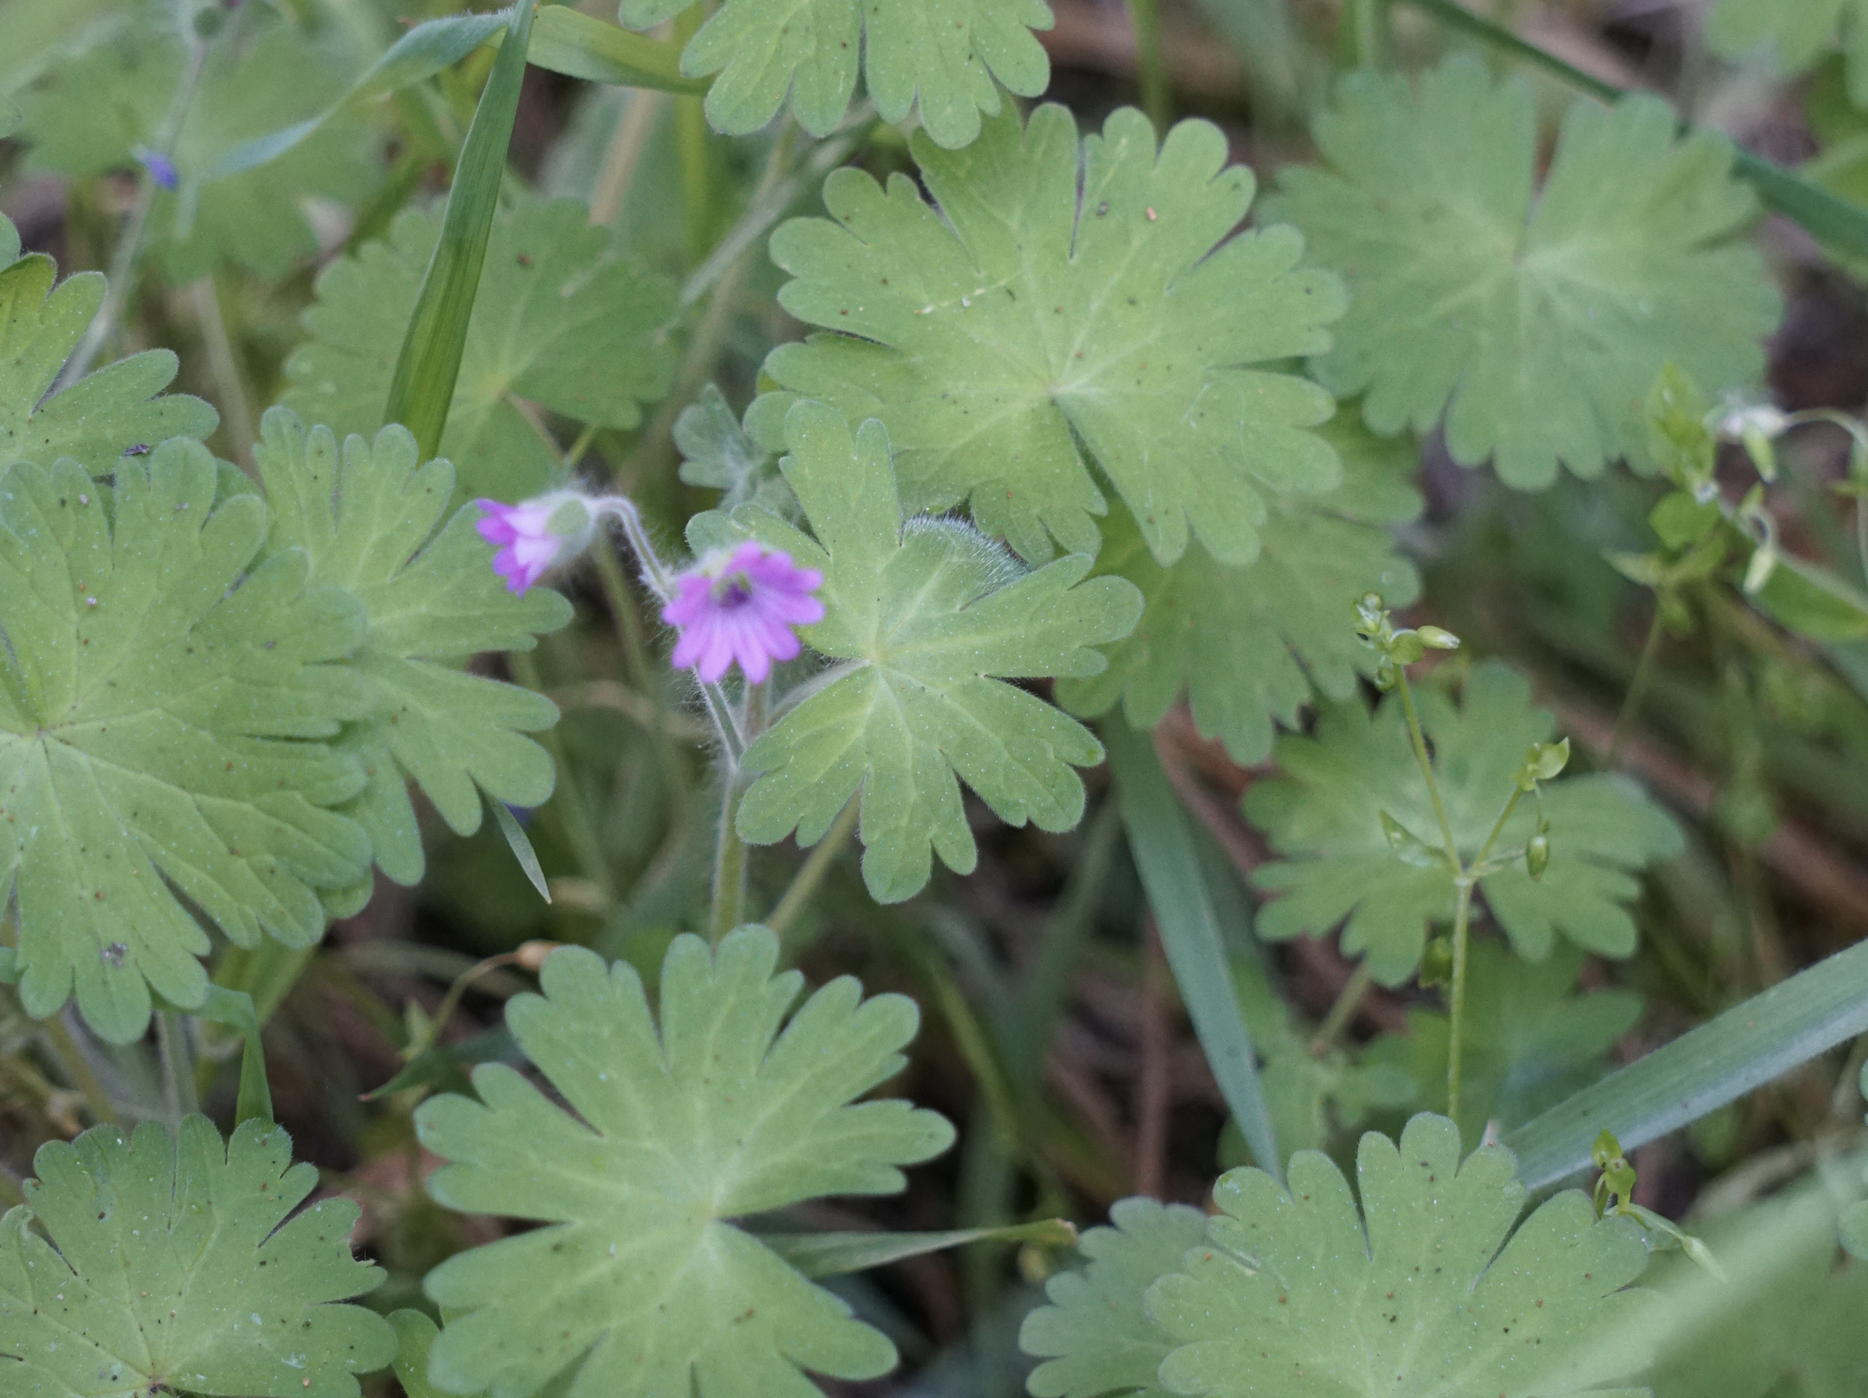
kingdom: Plantae
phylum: Tracheophyta
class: Magnoliopsida
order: Geraniales
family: Geraniaceae
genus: Geranium
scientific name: Geranium molle
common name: Dove's-foot crane's-bill
